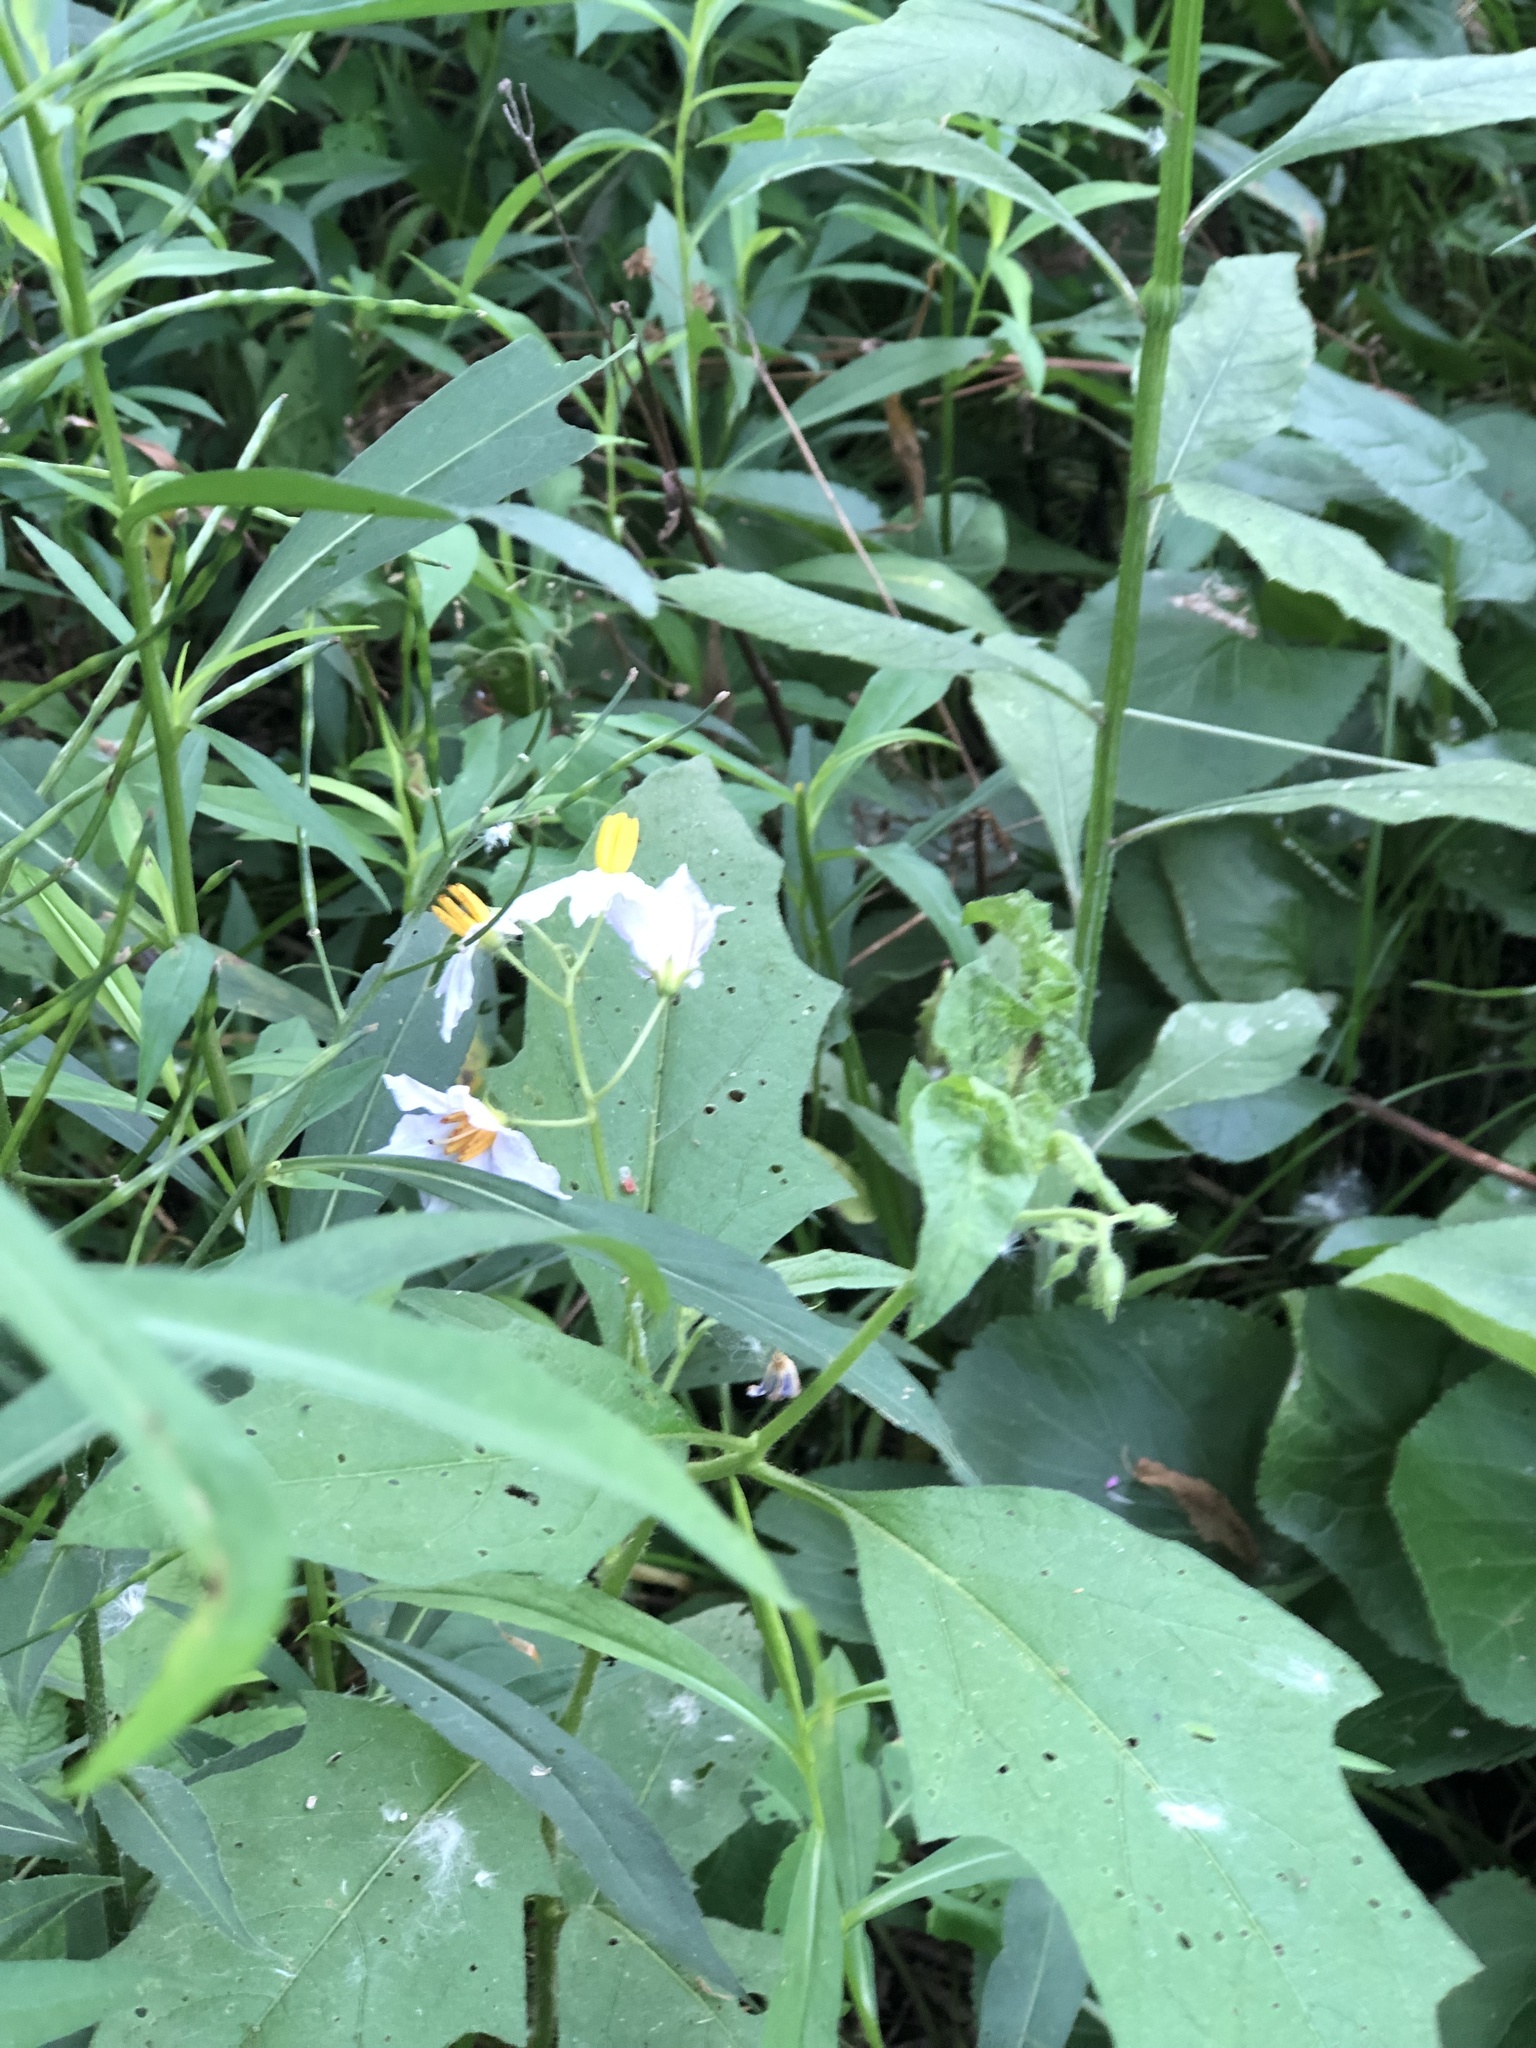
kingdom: Plantae
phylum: Tracheophyta
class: Magnoliopsida
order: Solanales
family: Solanaceae
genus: Solanum
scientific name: Solanum carolinense
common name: Horse-nettle
